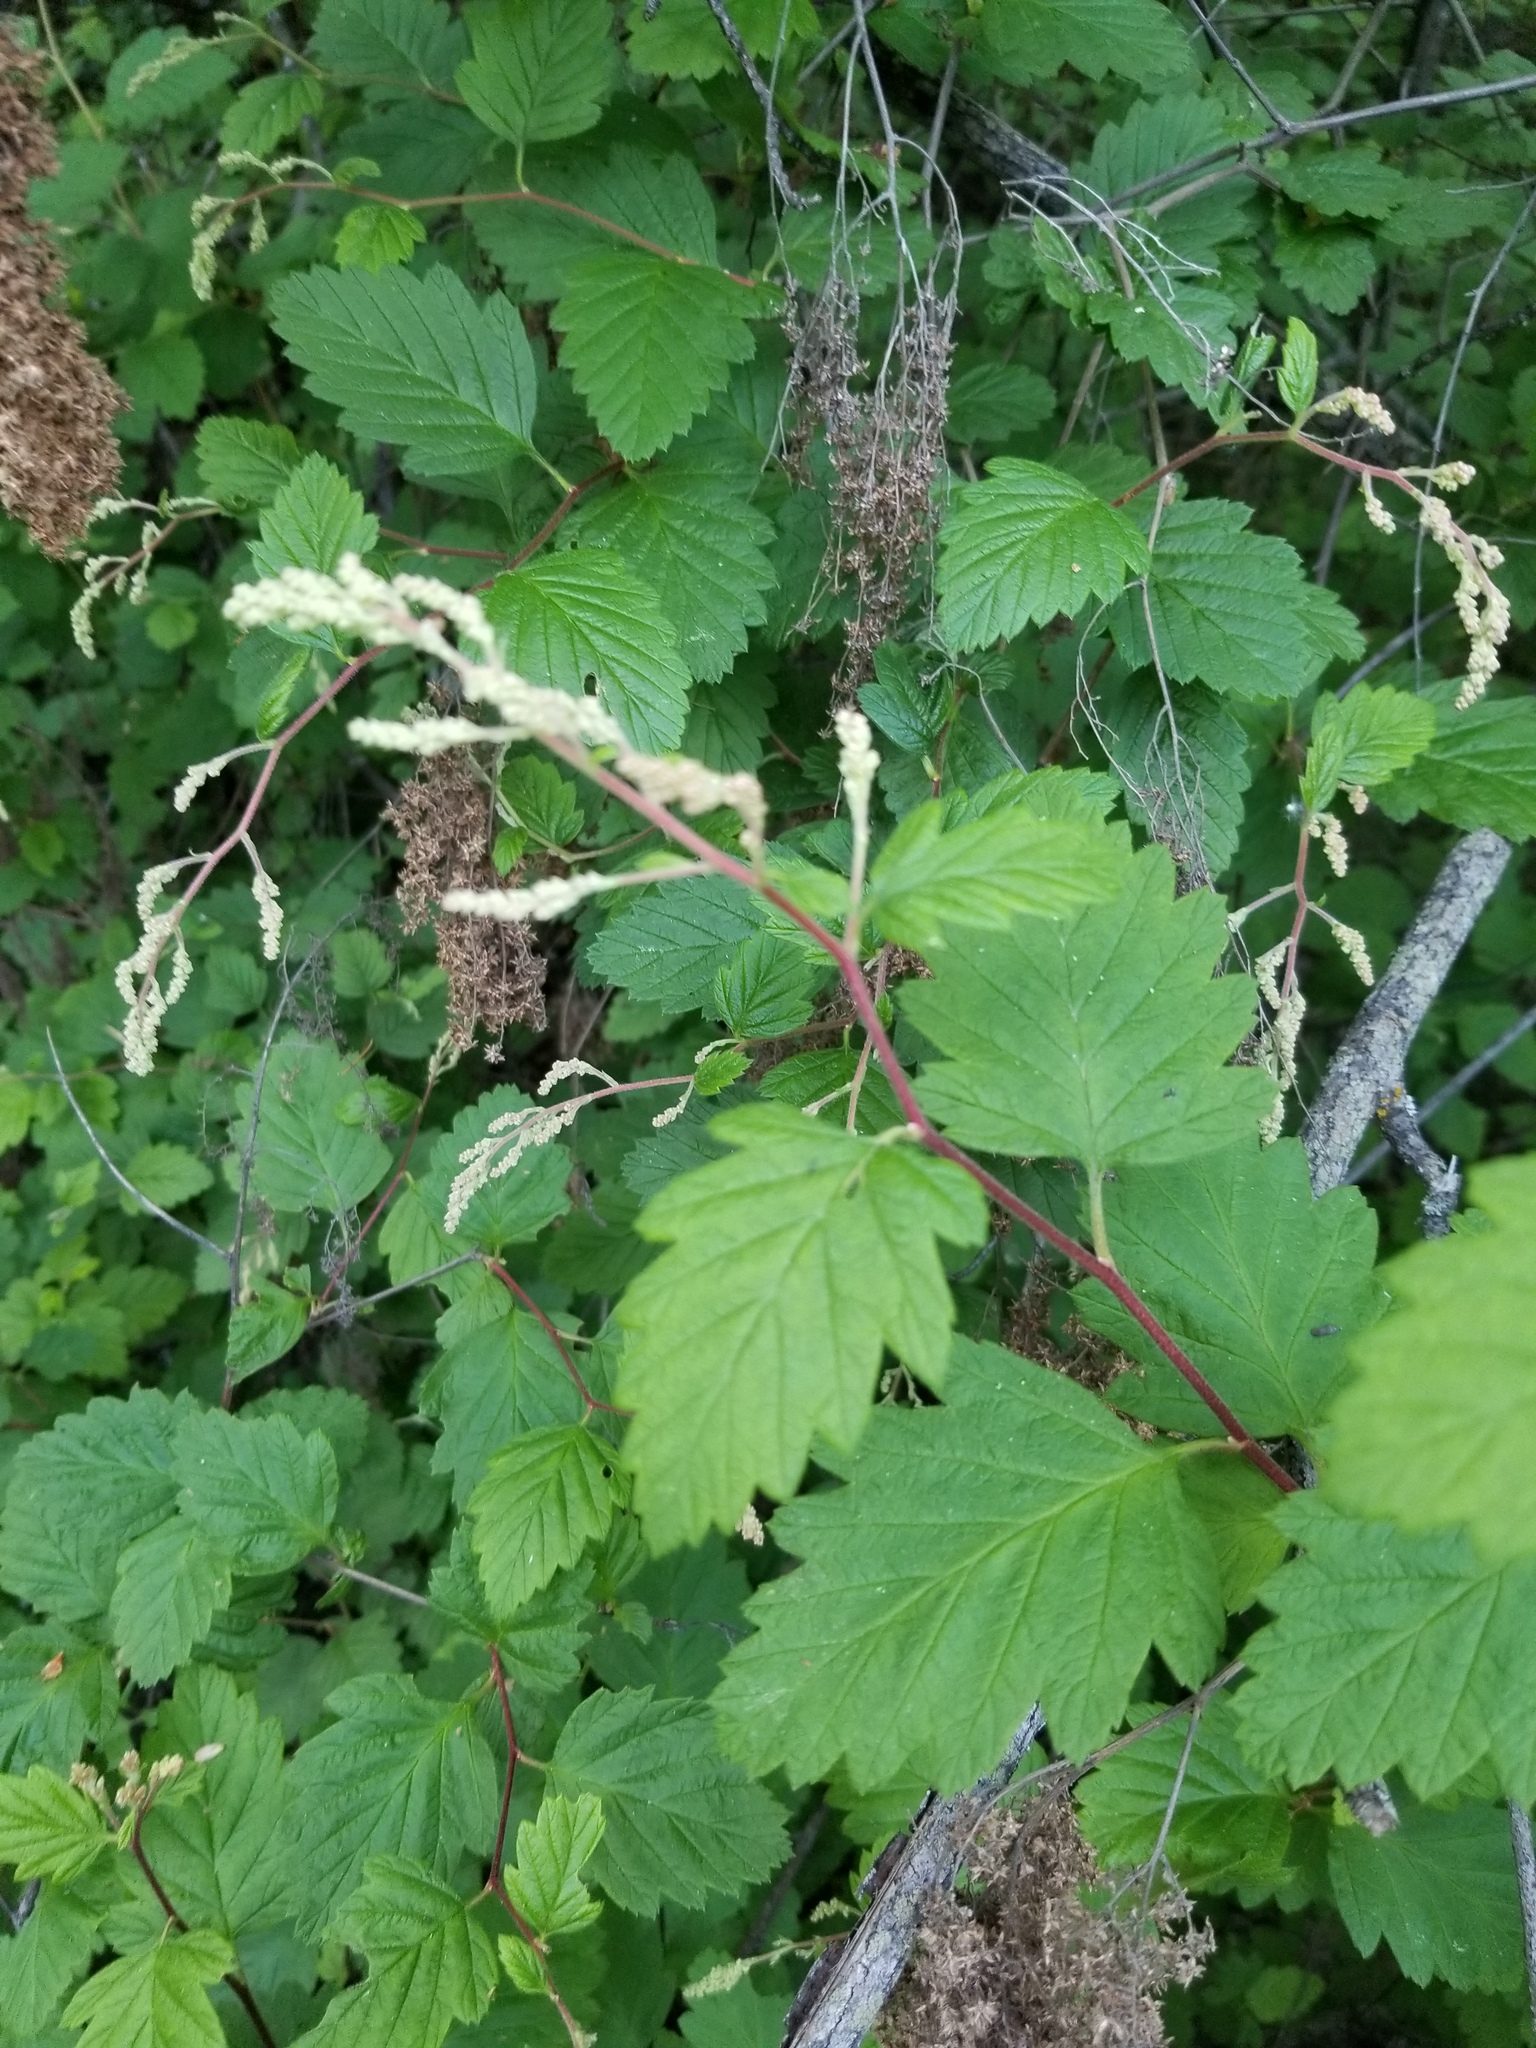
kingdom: Plantae
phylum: Tracheophyta
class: Magnoliopsida
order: Rosales
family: Rosaceae
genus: Holodiscus
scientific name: Holodiscus discolor
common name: Oceanspray
